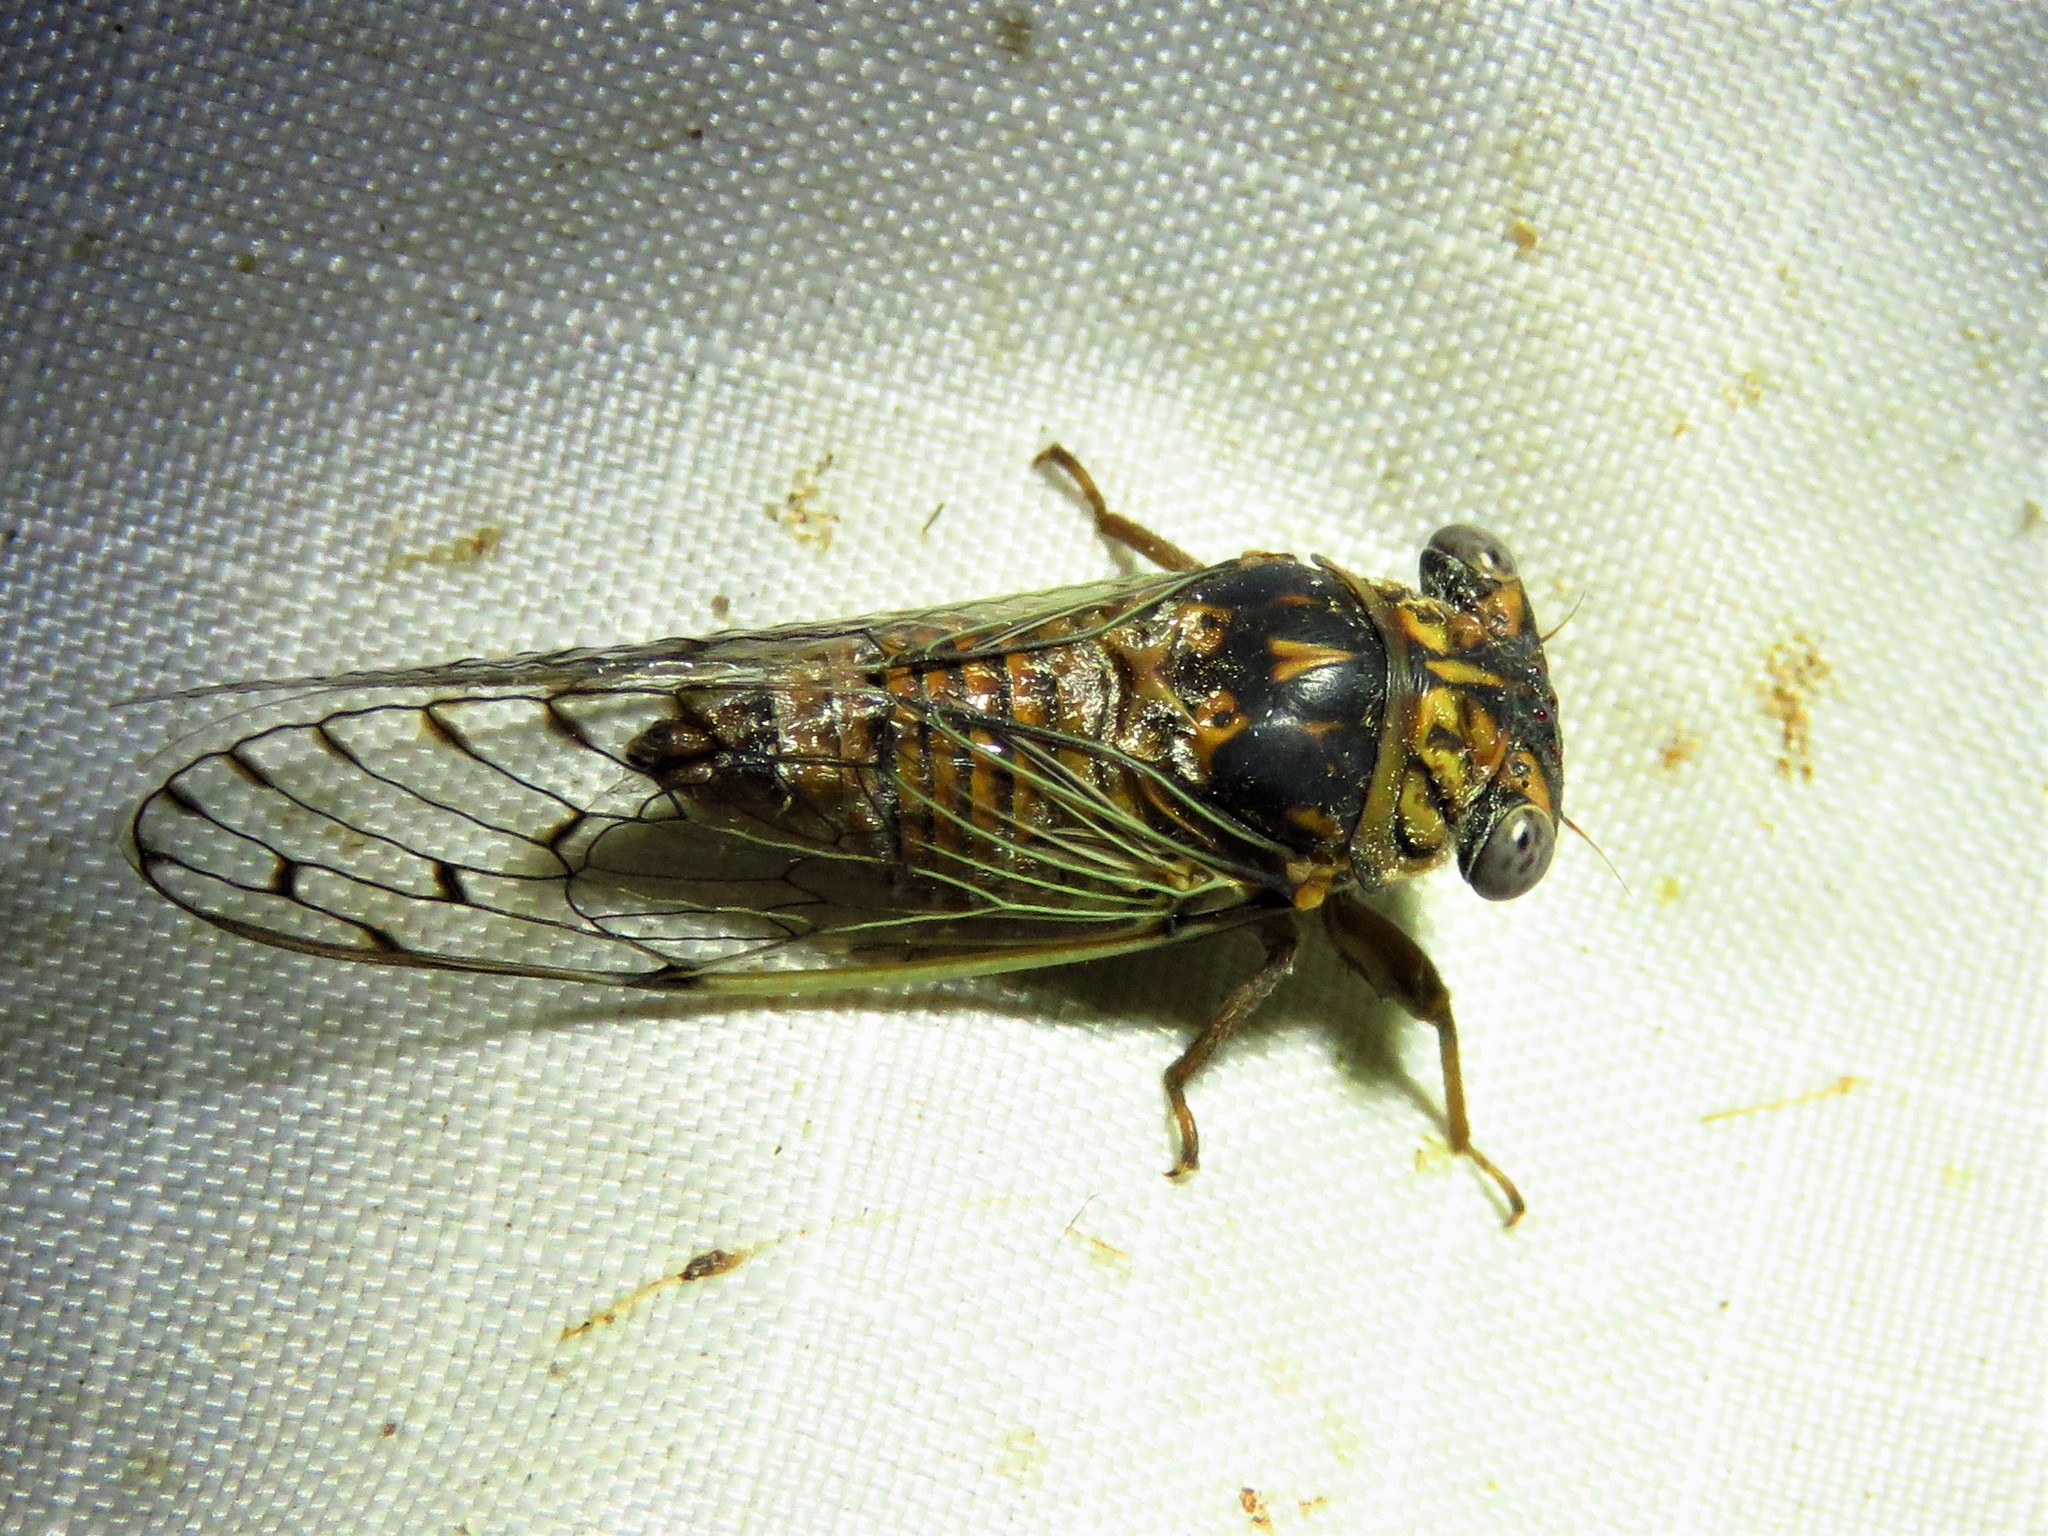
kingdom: Animalia
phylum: Arthropoda
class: Insecta
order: Hemiptera
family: Cicadidae
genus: Pacarina
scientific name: Pacarina puella
